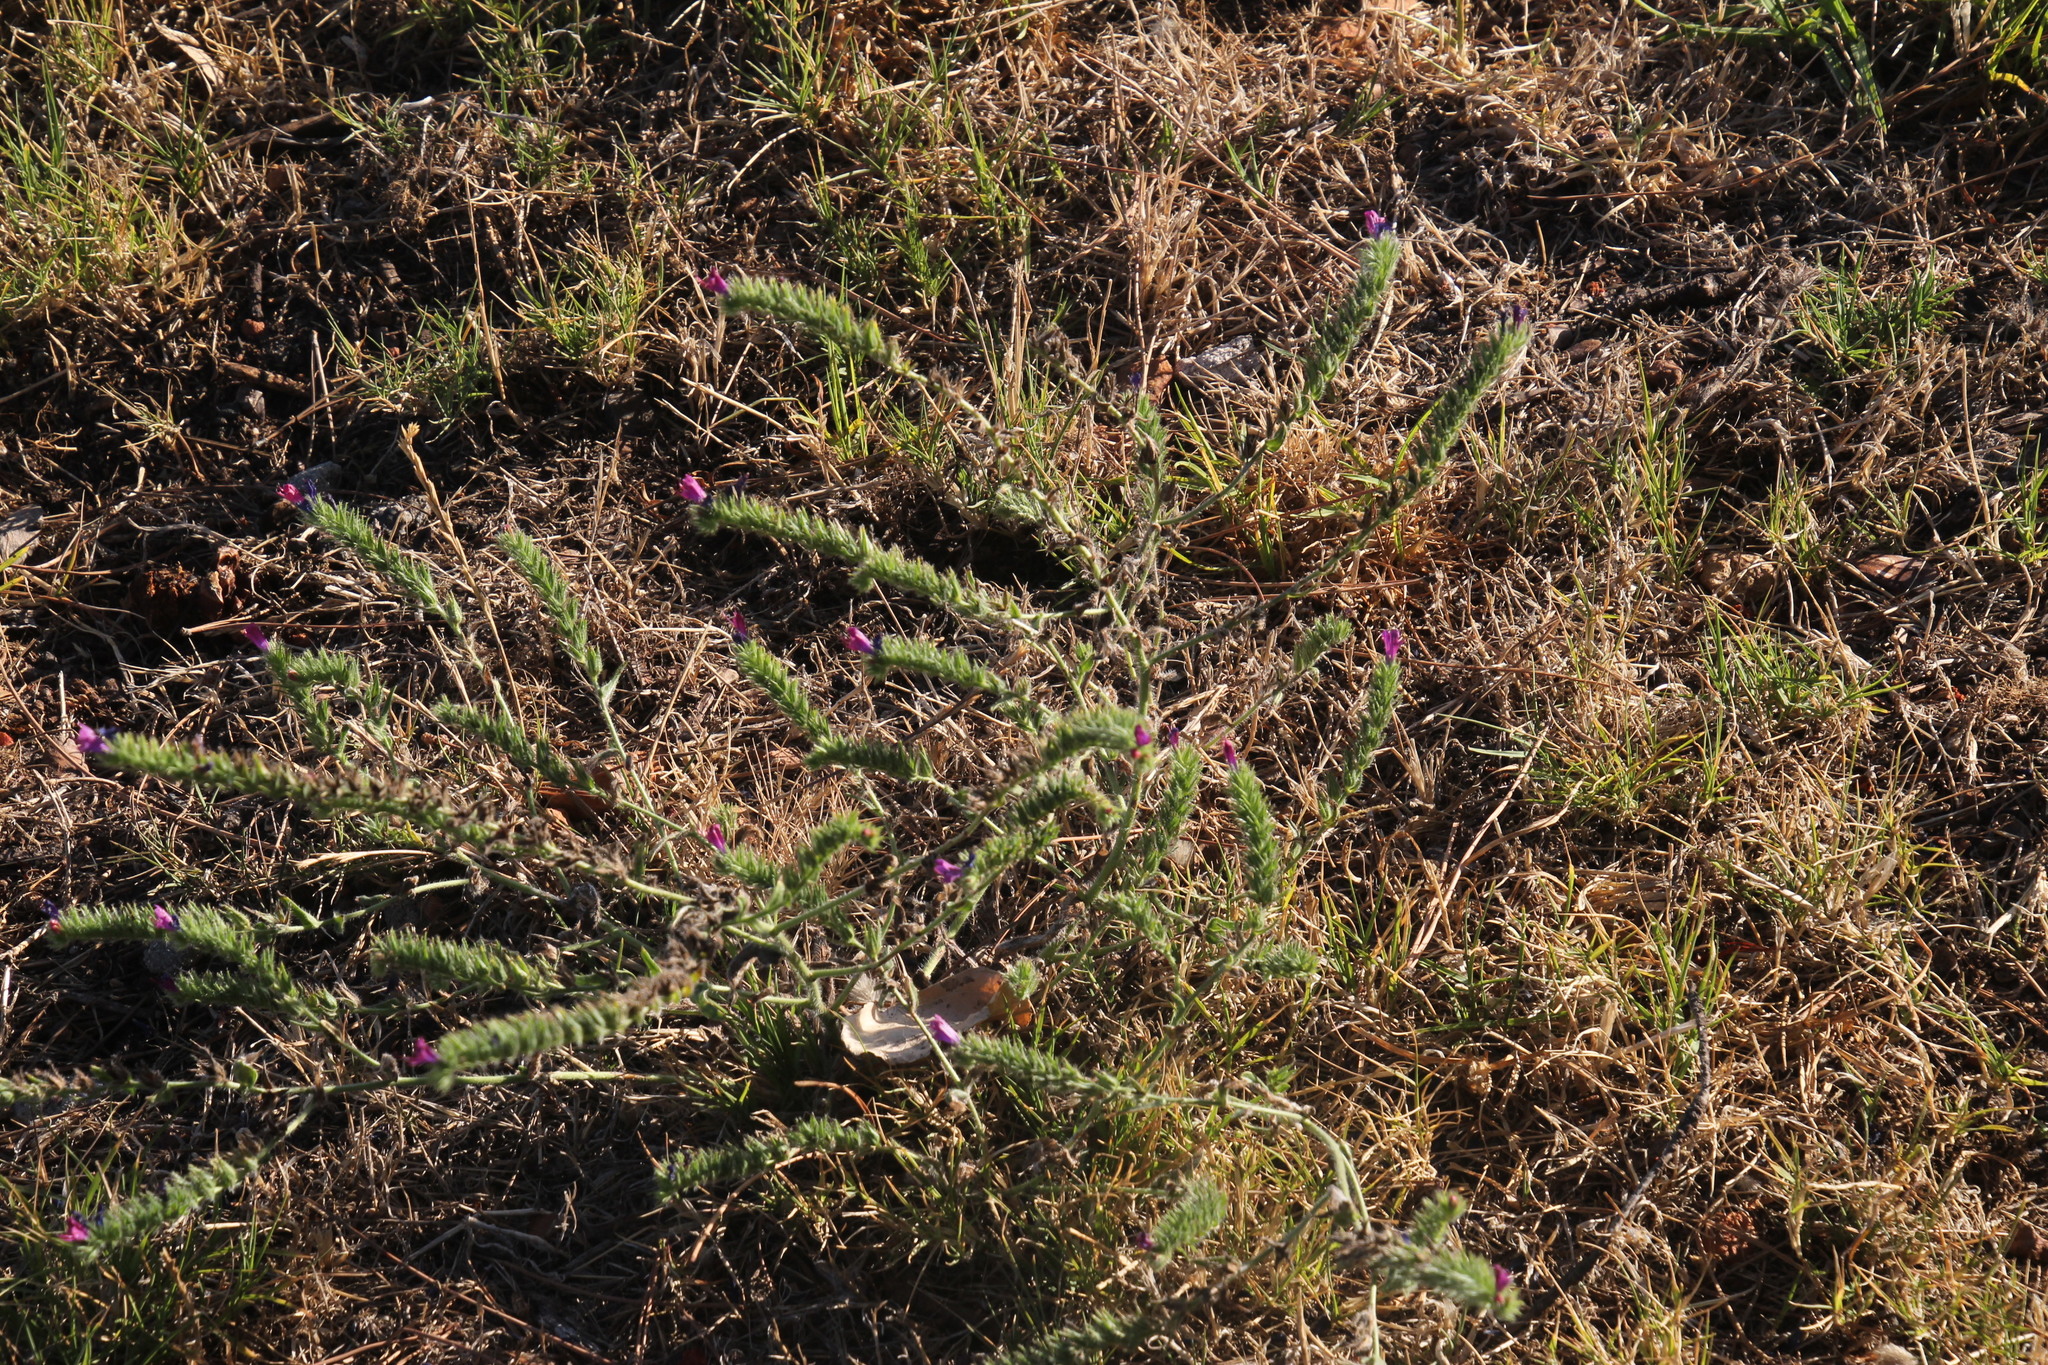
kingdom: Plantae
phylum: Tracheophyta
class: Magnoliopsida
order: Boraginales
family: Boraginaceae
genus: Echium
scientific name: Echium plantagineum
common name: Purple viper's-bugloss
